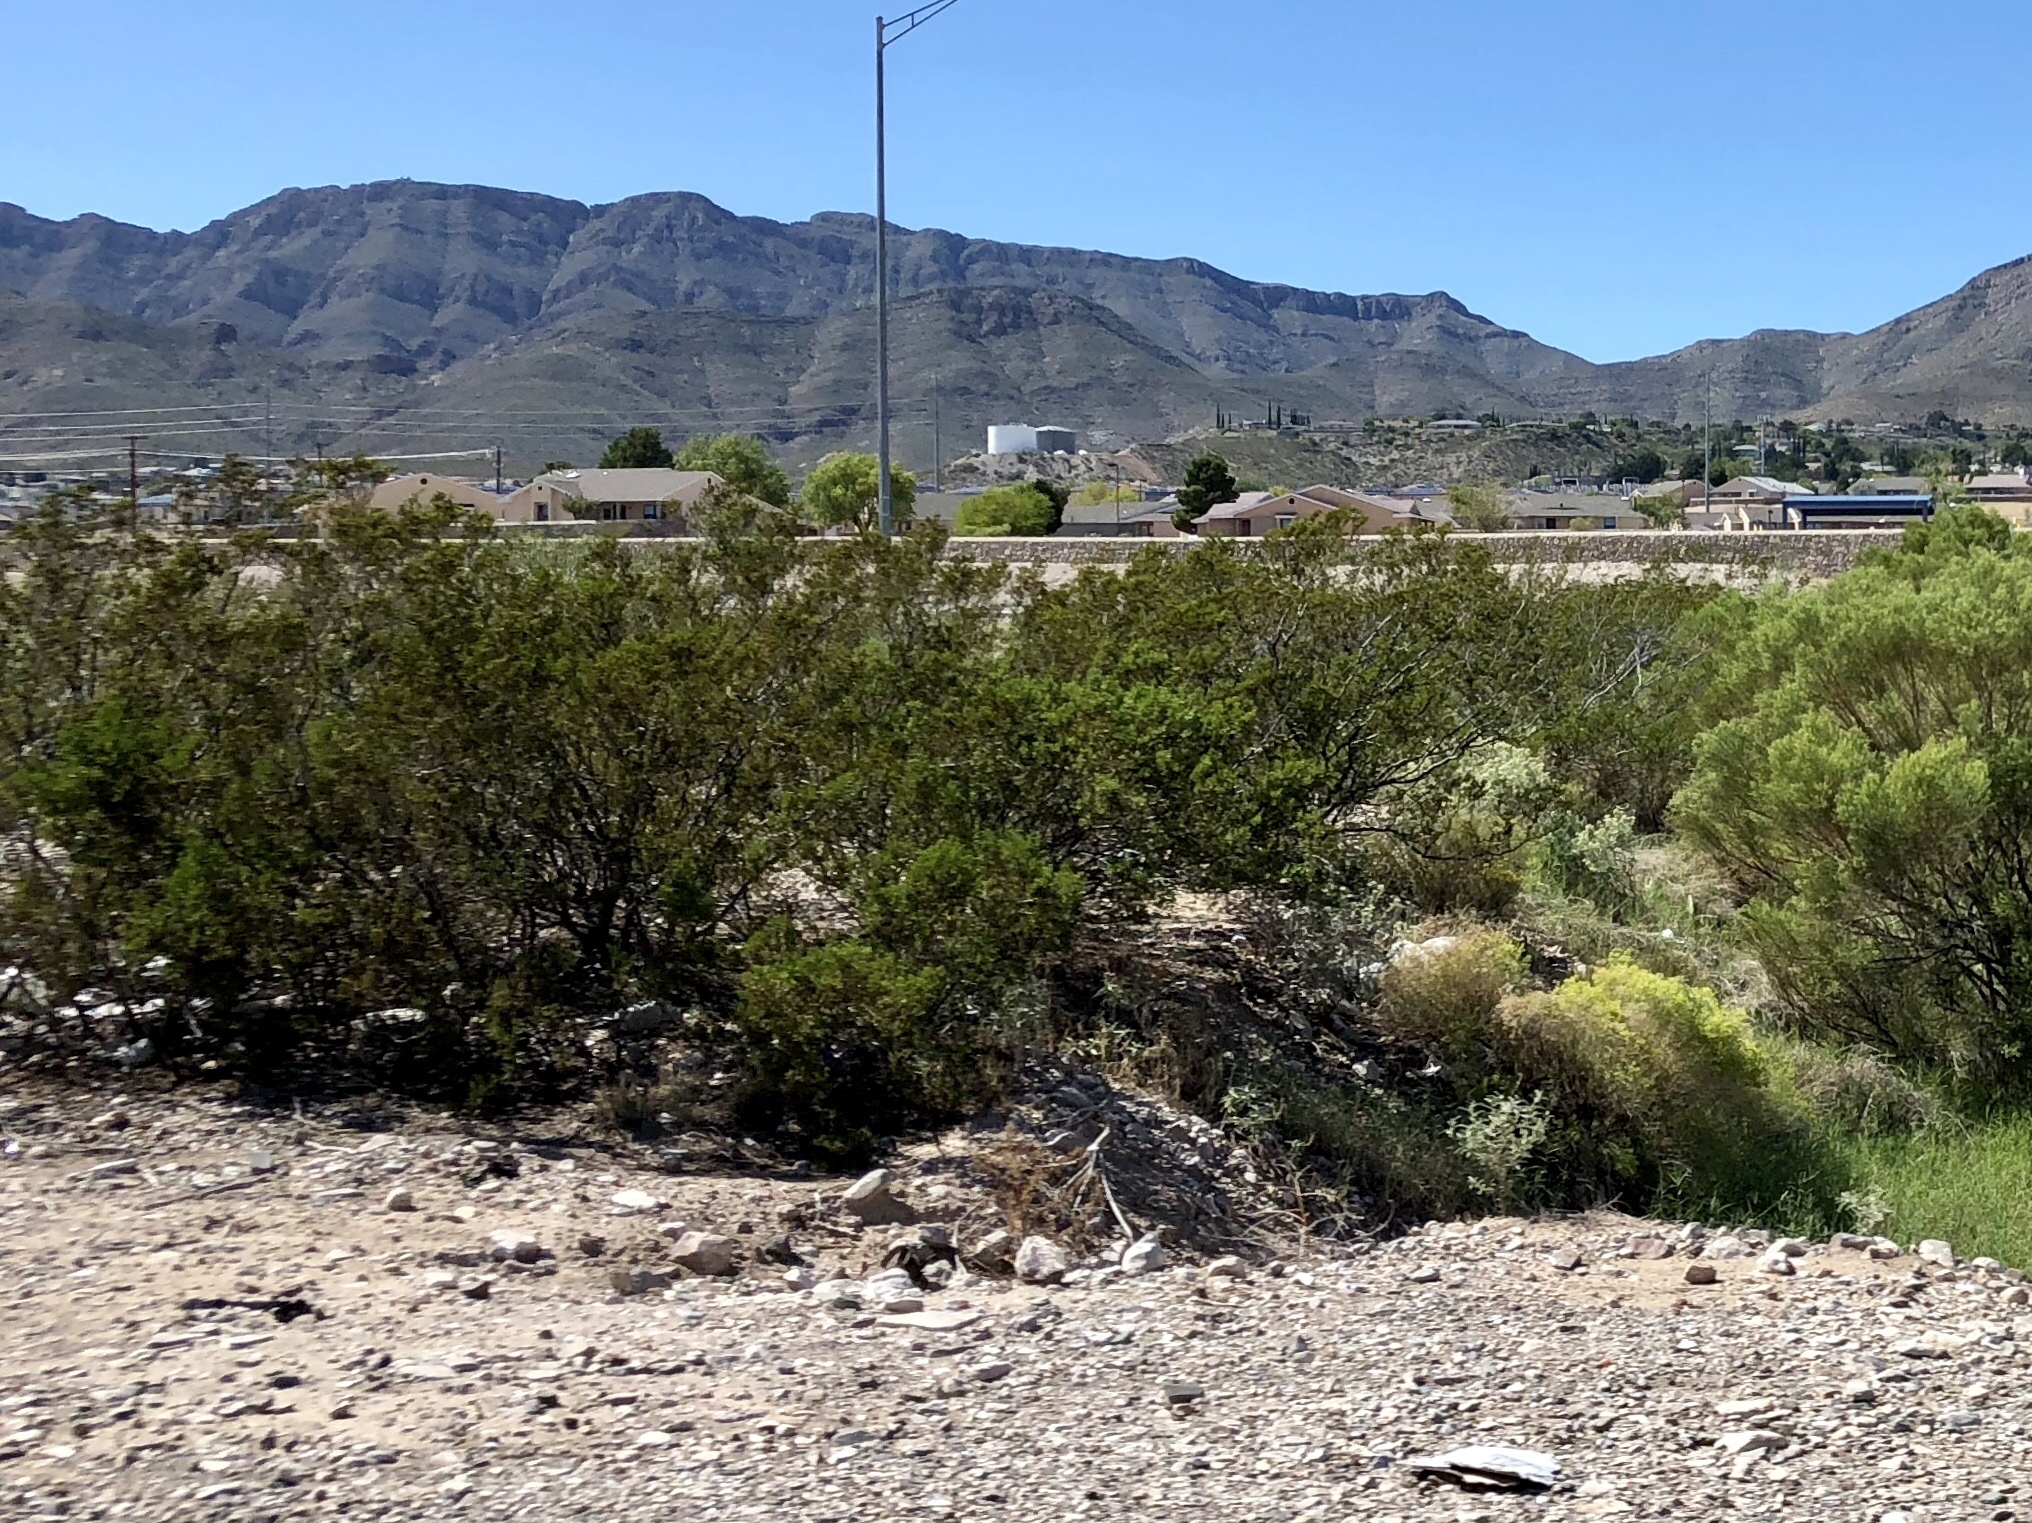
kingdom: Plantae
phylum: Tracheophyta
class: Magnoliopsida
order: Zygophyllales
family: Zygophyllaceae
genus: Larrea
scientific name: Larrea tridentata
